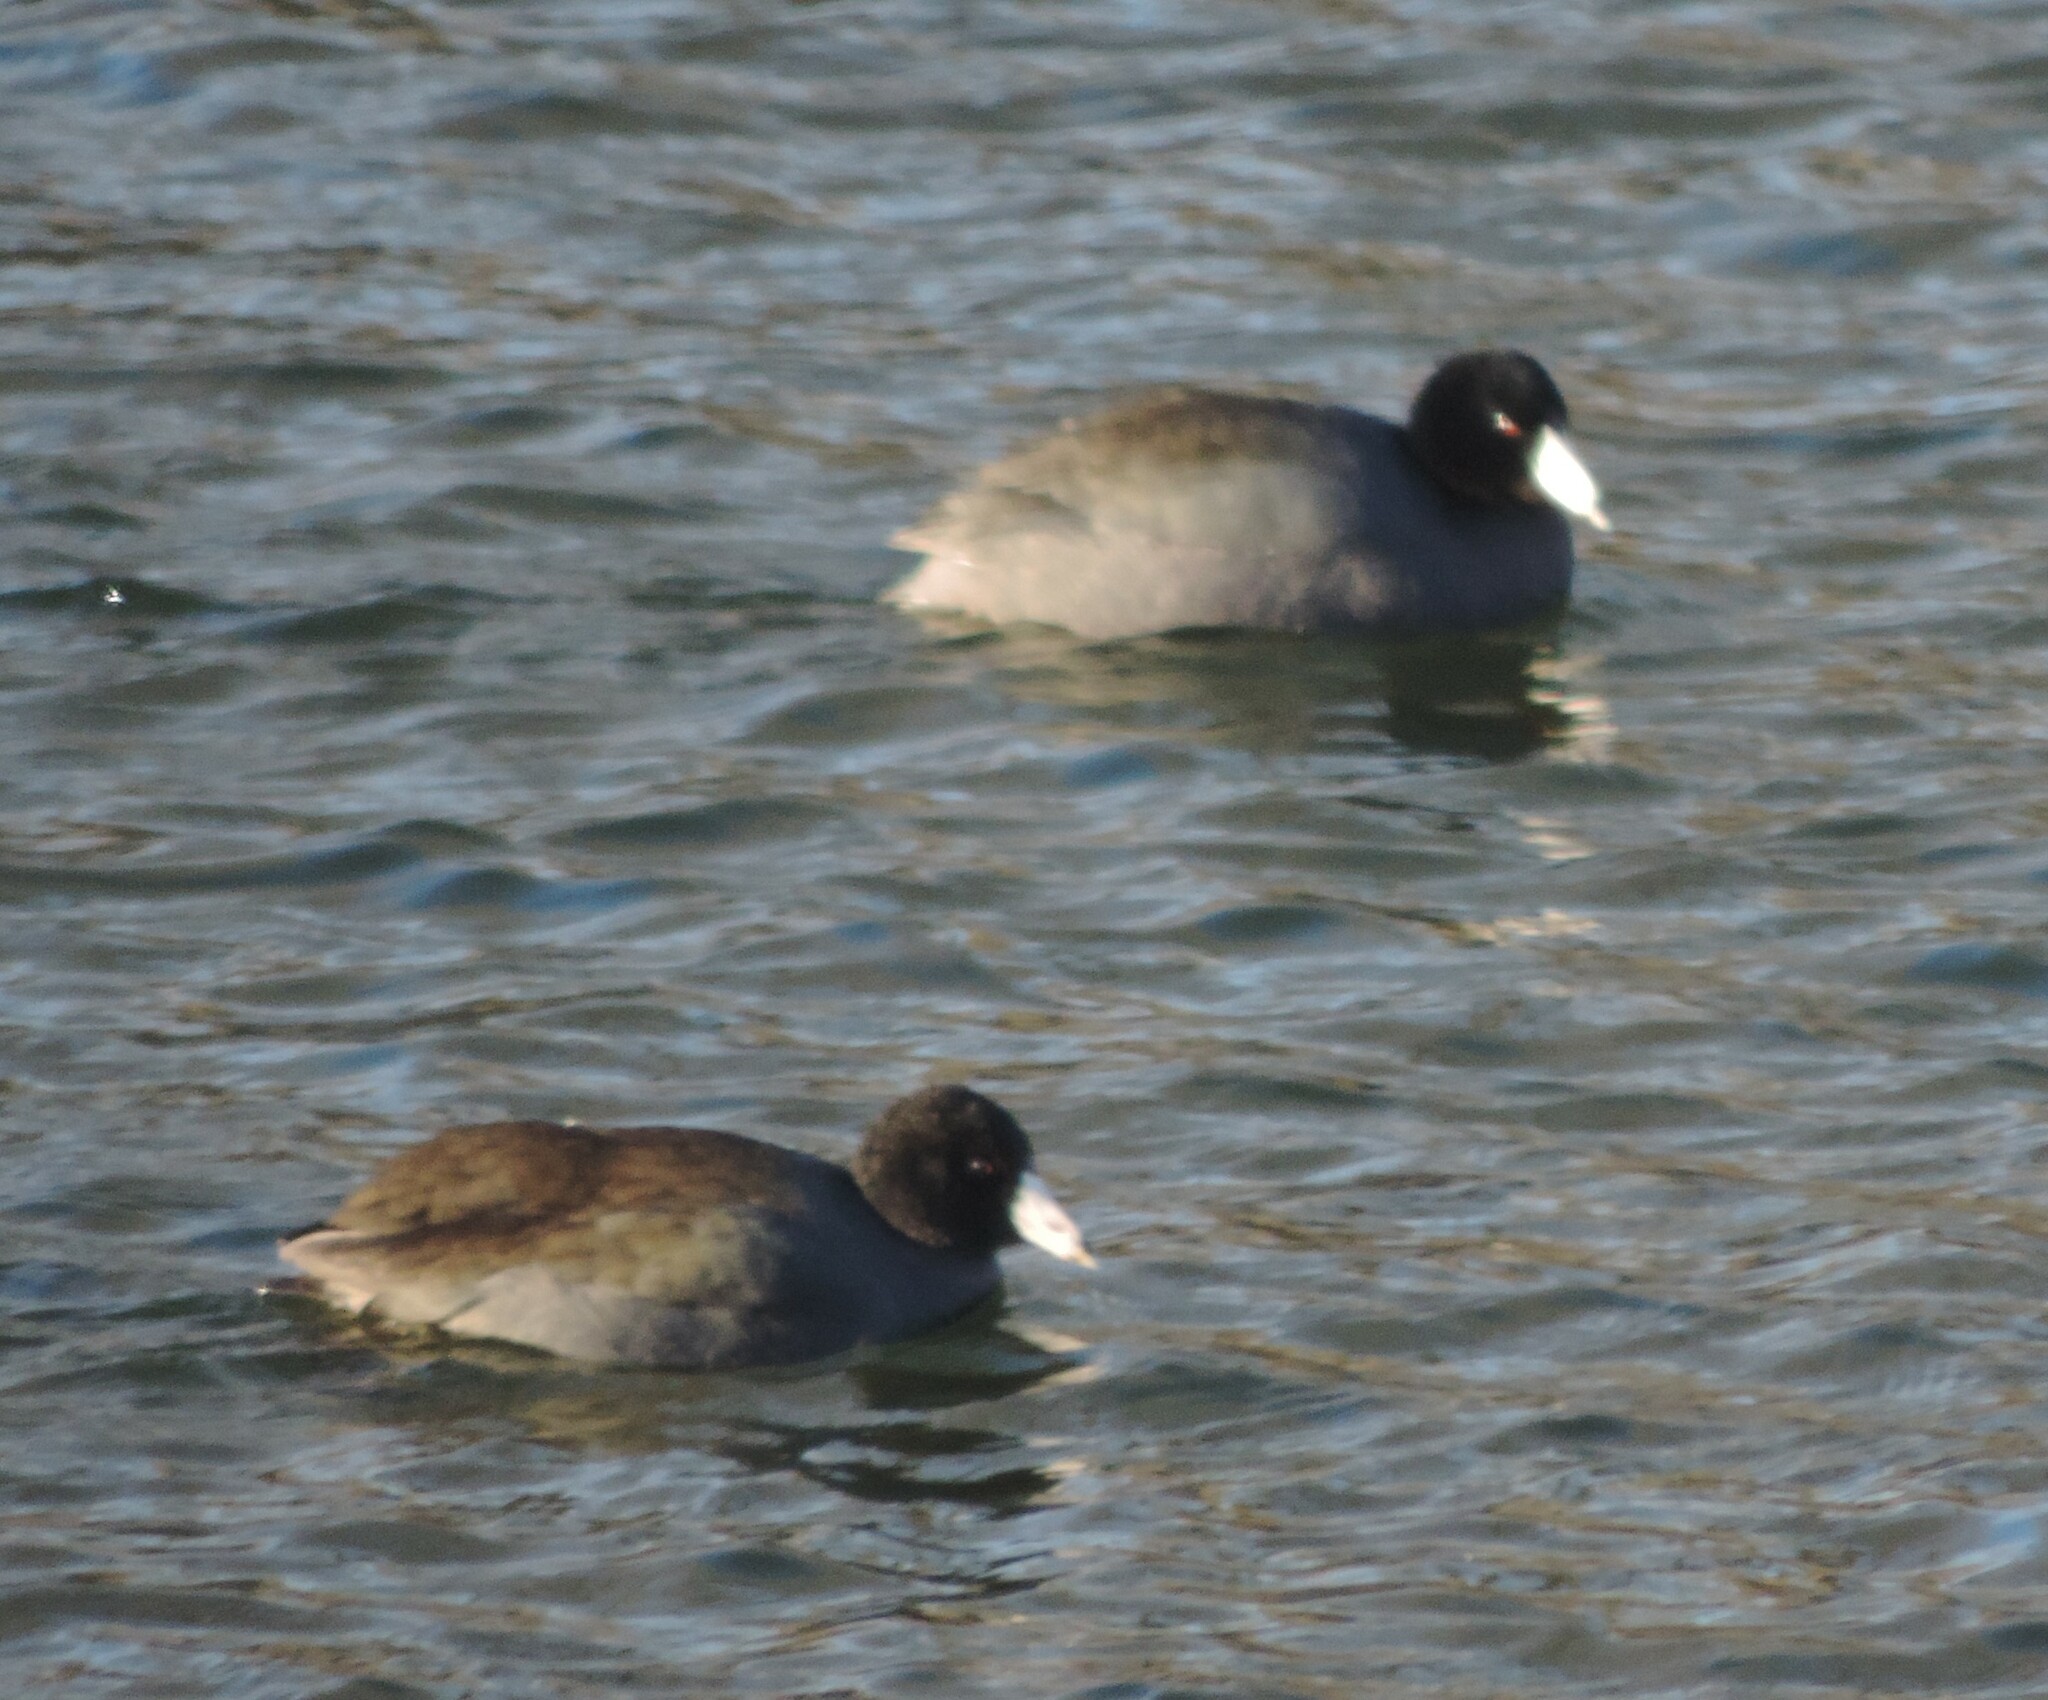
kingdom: Animalia
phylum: Chordata
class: Aves
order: Gruiformes
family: Rallidae
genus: Fulica
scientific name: Fulica americana
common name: American coot
